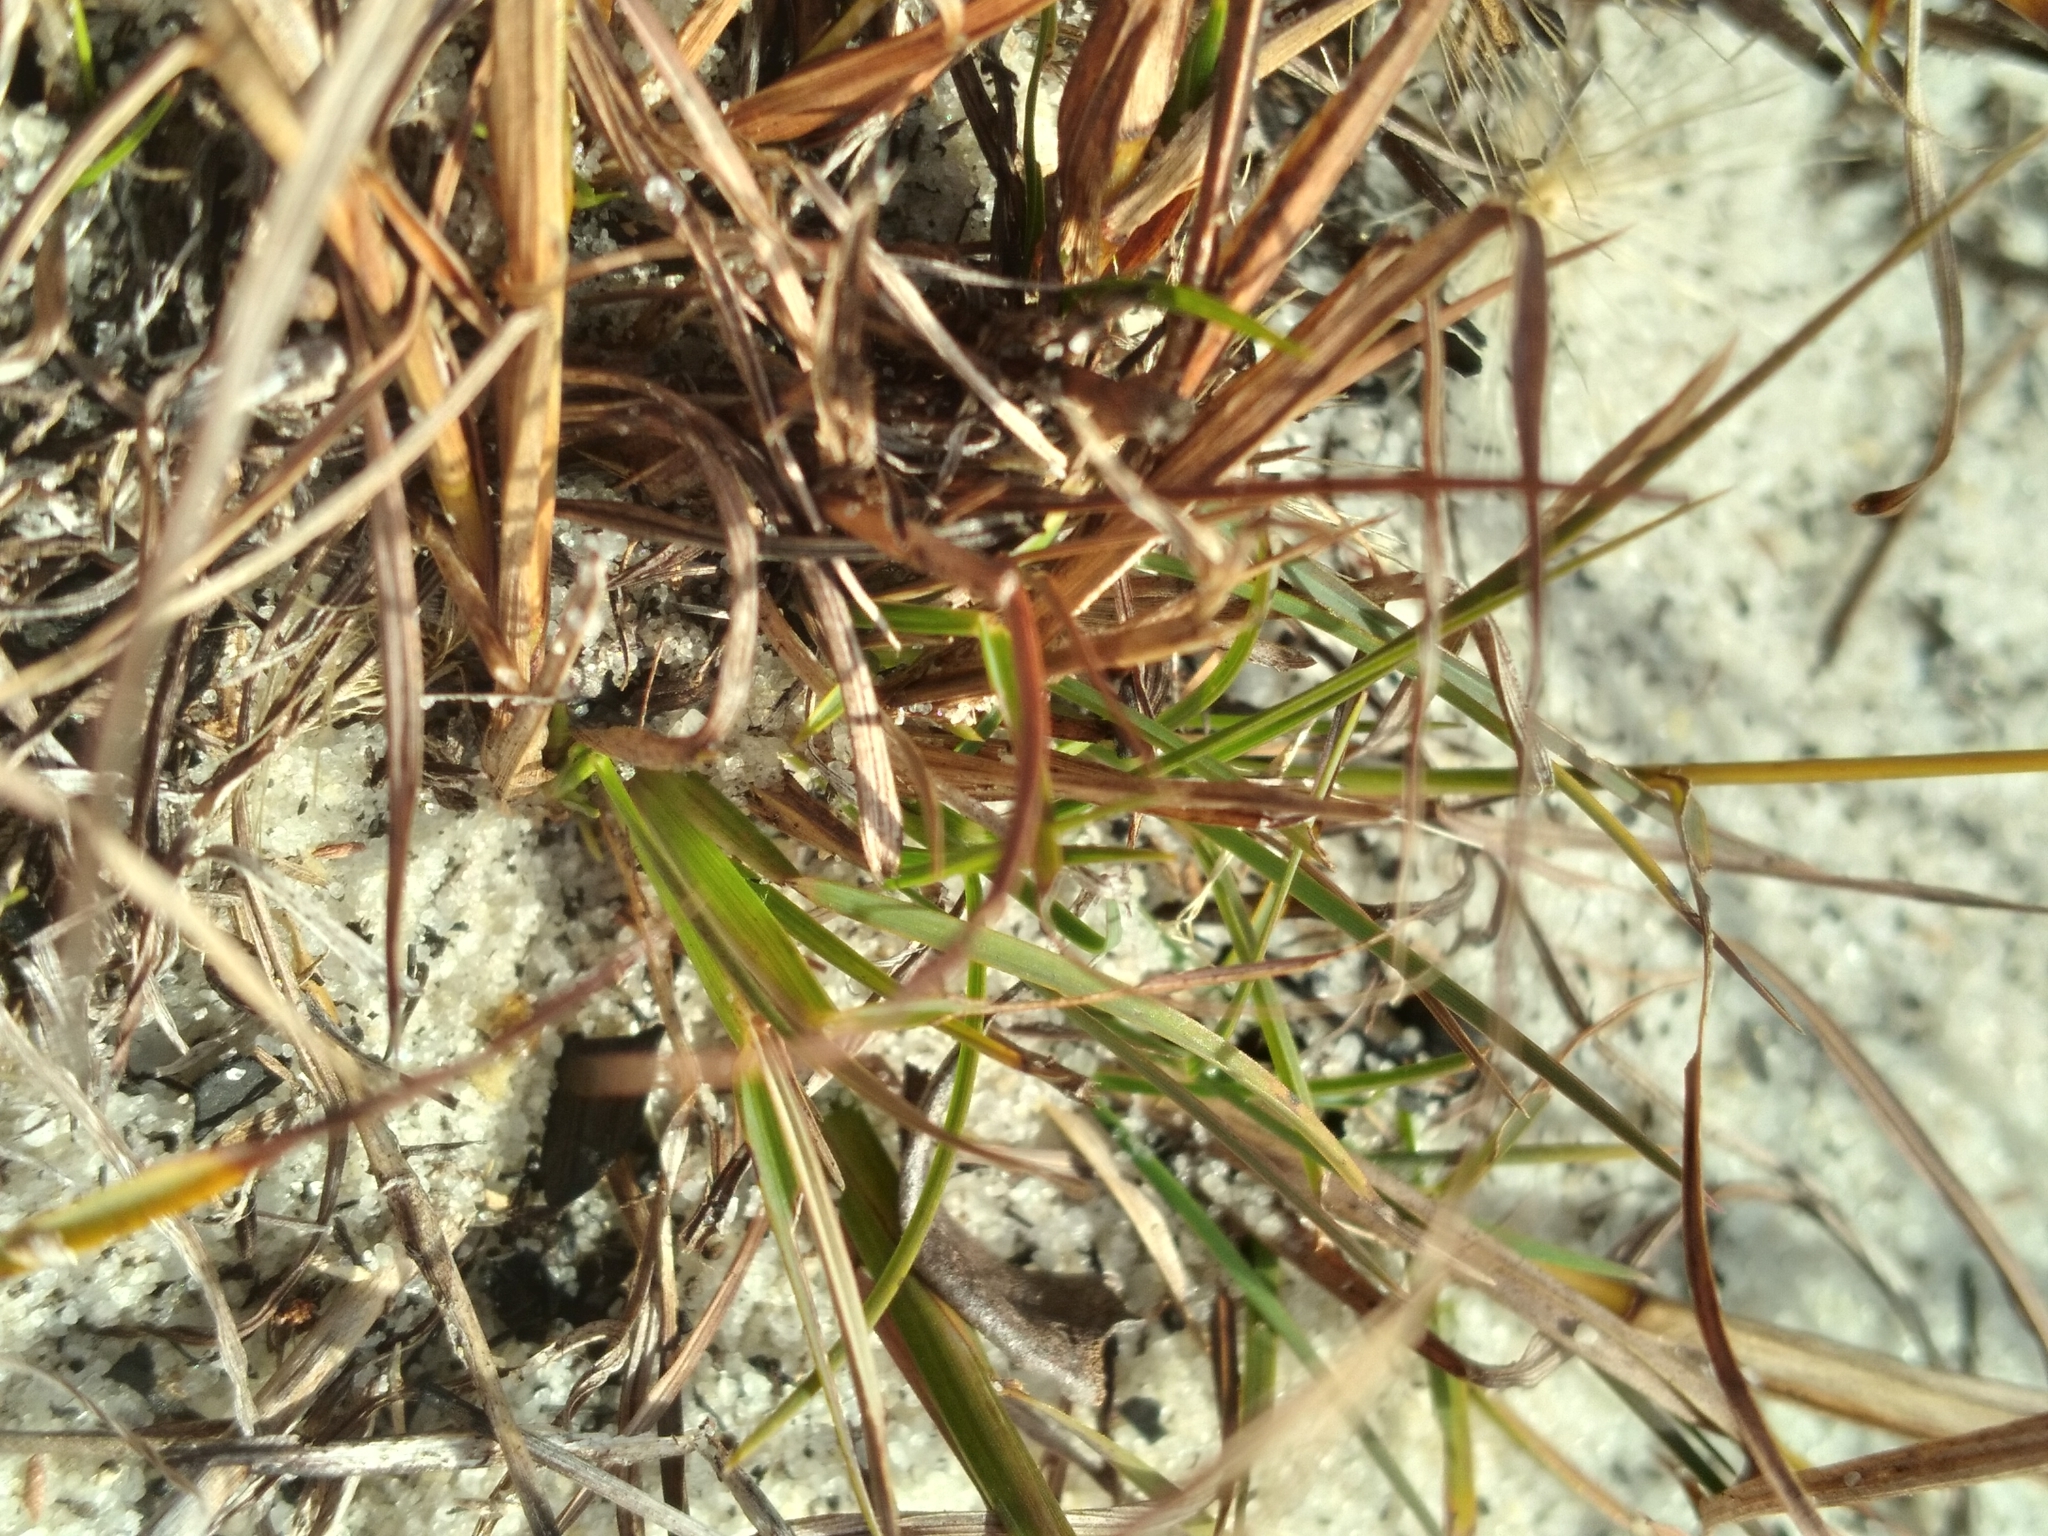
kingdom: Plantae
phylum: Tracheophyta
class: Liliopsida
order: Poales
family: Poaceae
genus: Schizachyrium
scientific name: Schizachyrium niveum
